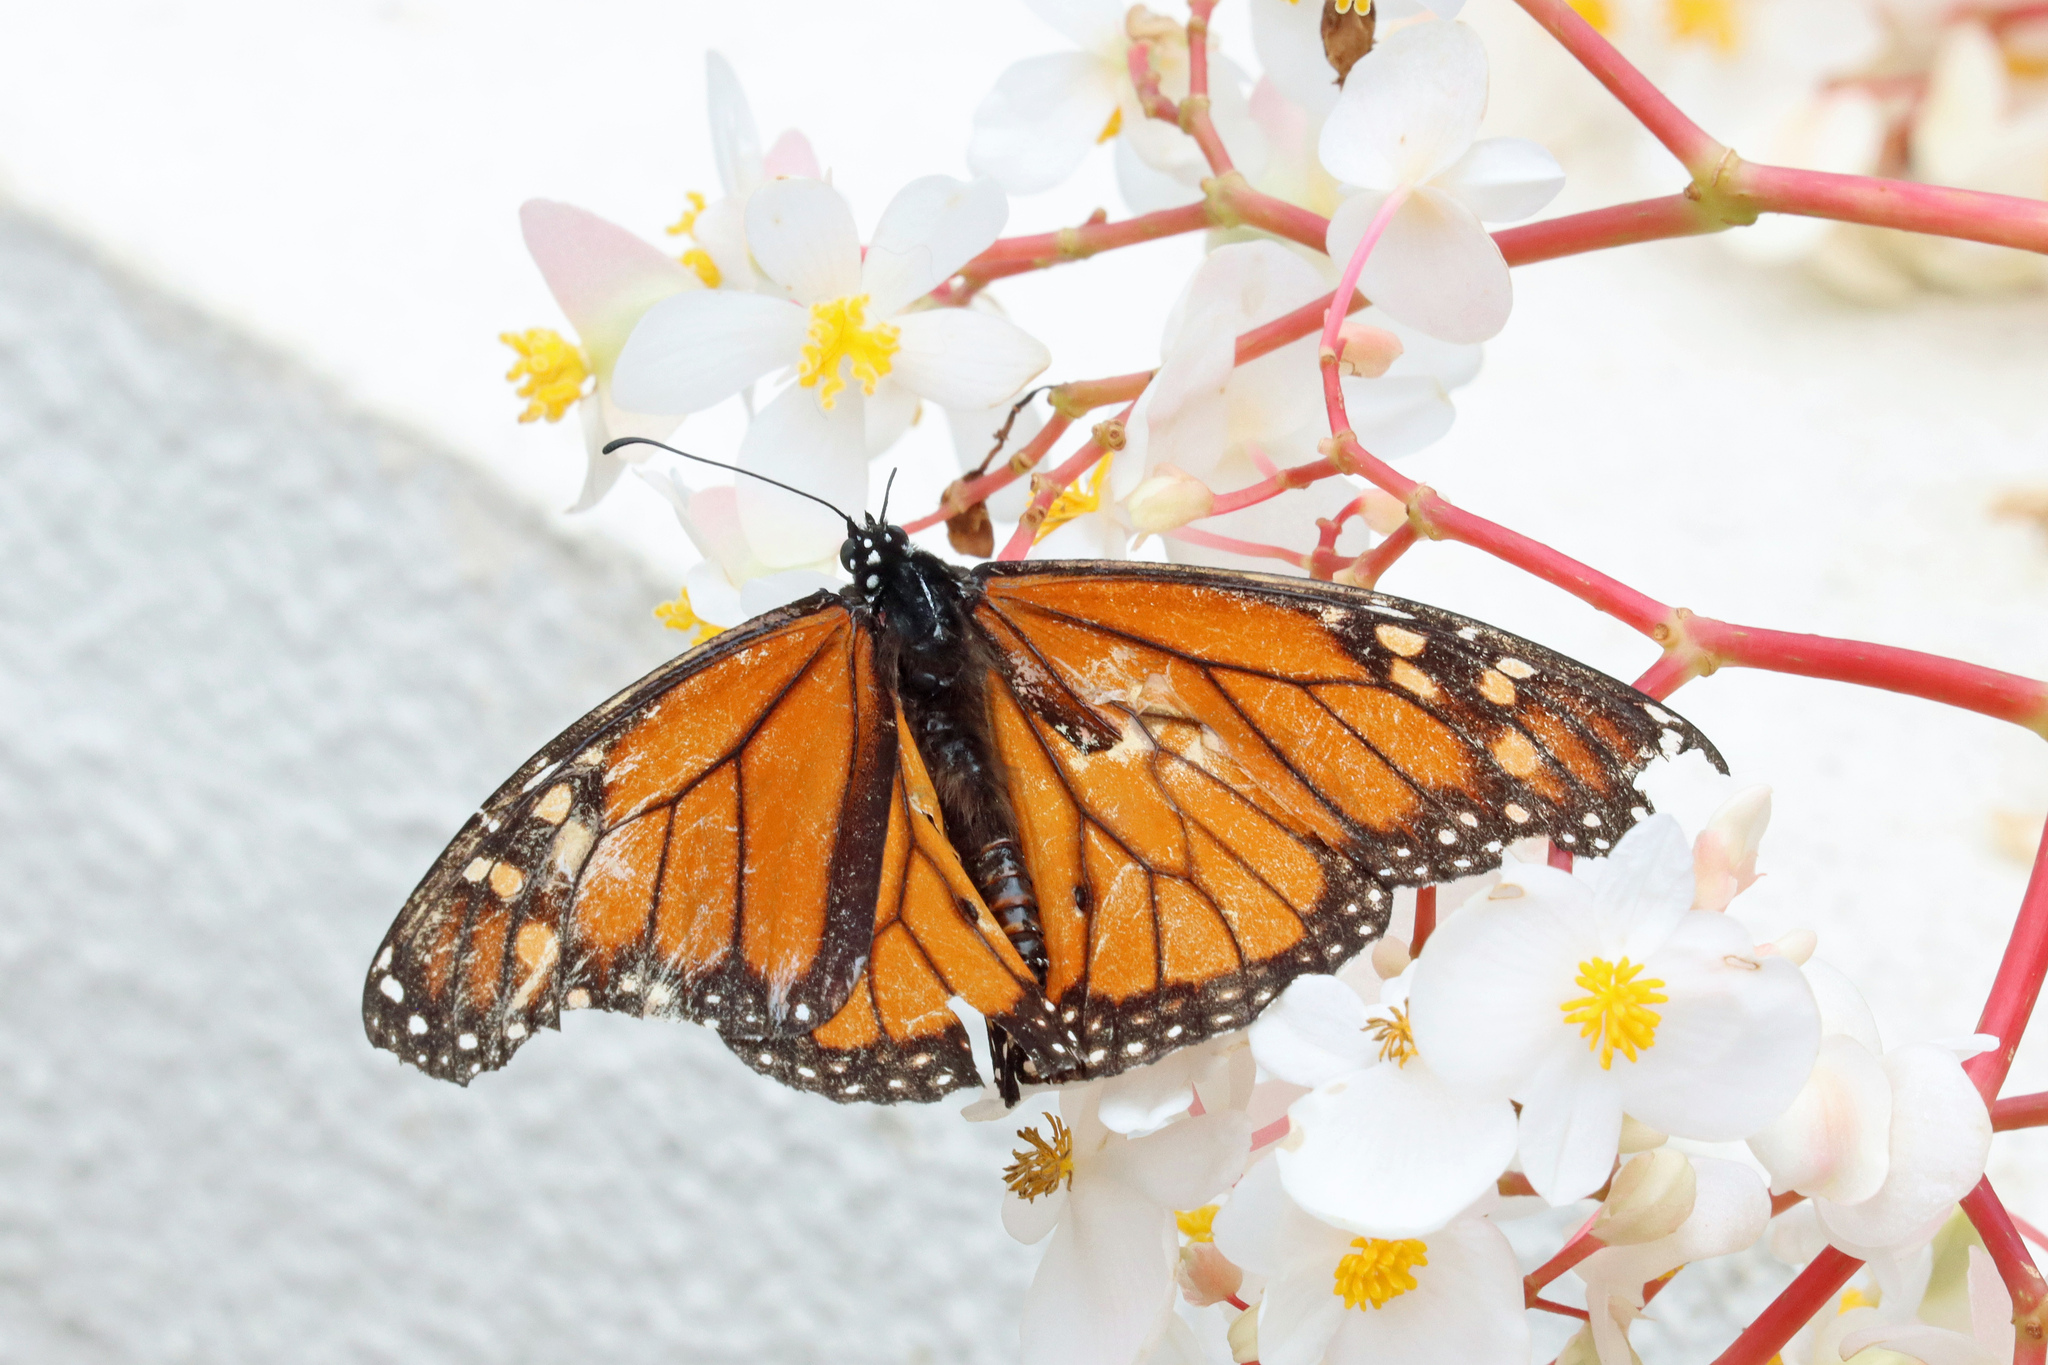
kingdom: Animalia
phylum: Arthropoda
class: Insecta
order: Lepidoptera
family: Nymphalidae
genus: Danaus
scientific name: Danaus plexippus
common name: Monarch
